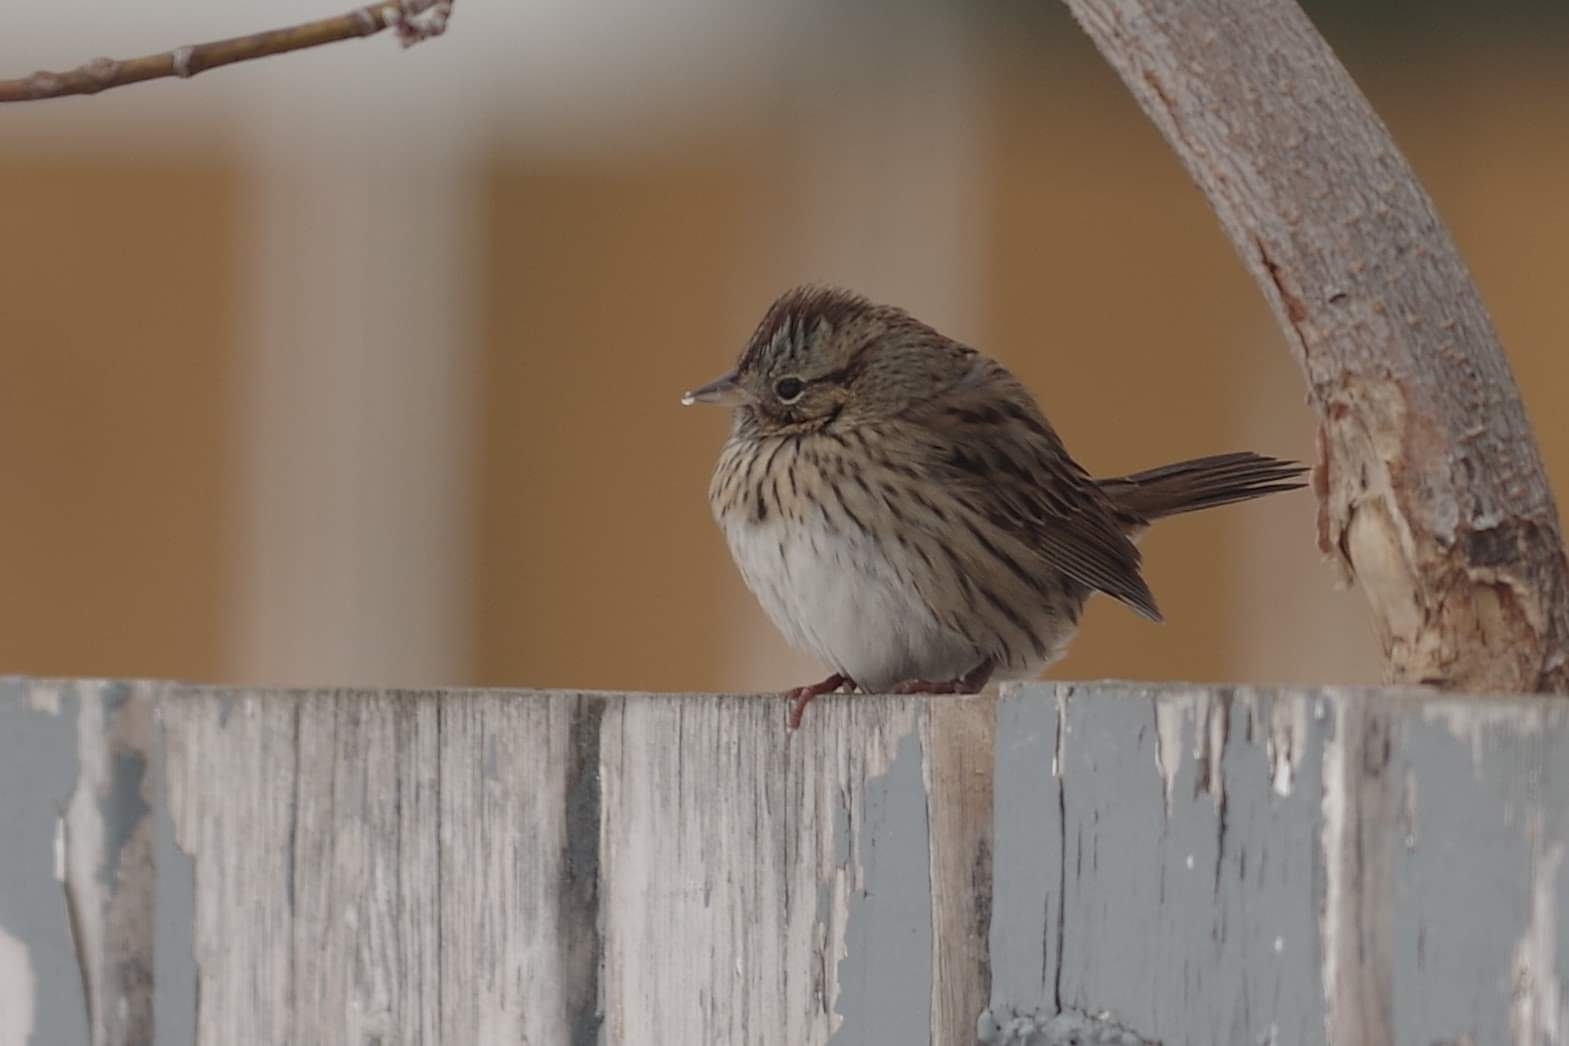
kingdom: Animalia
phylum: Chordata
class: Aves
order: Passeriformes
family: Passerellidae
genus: Melospiza
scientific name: Melospiza lincolnii
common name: Lincoln's sparrow
